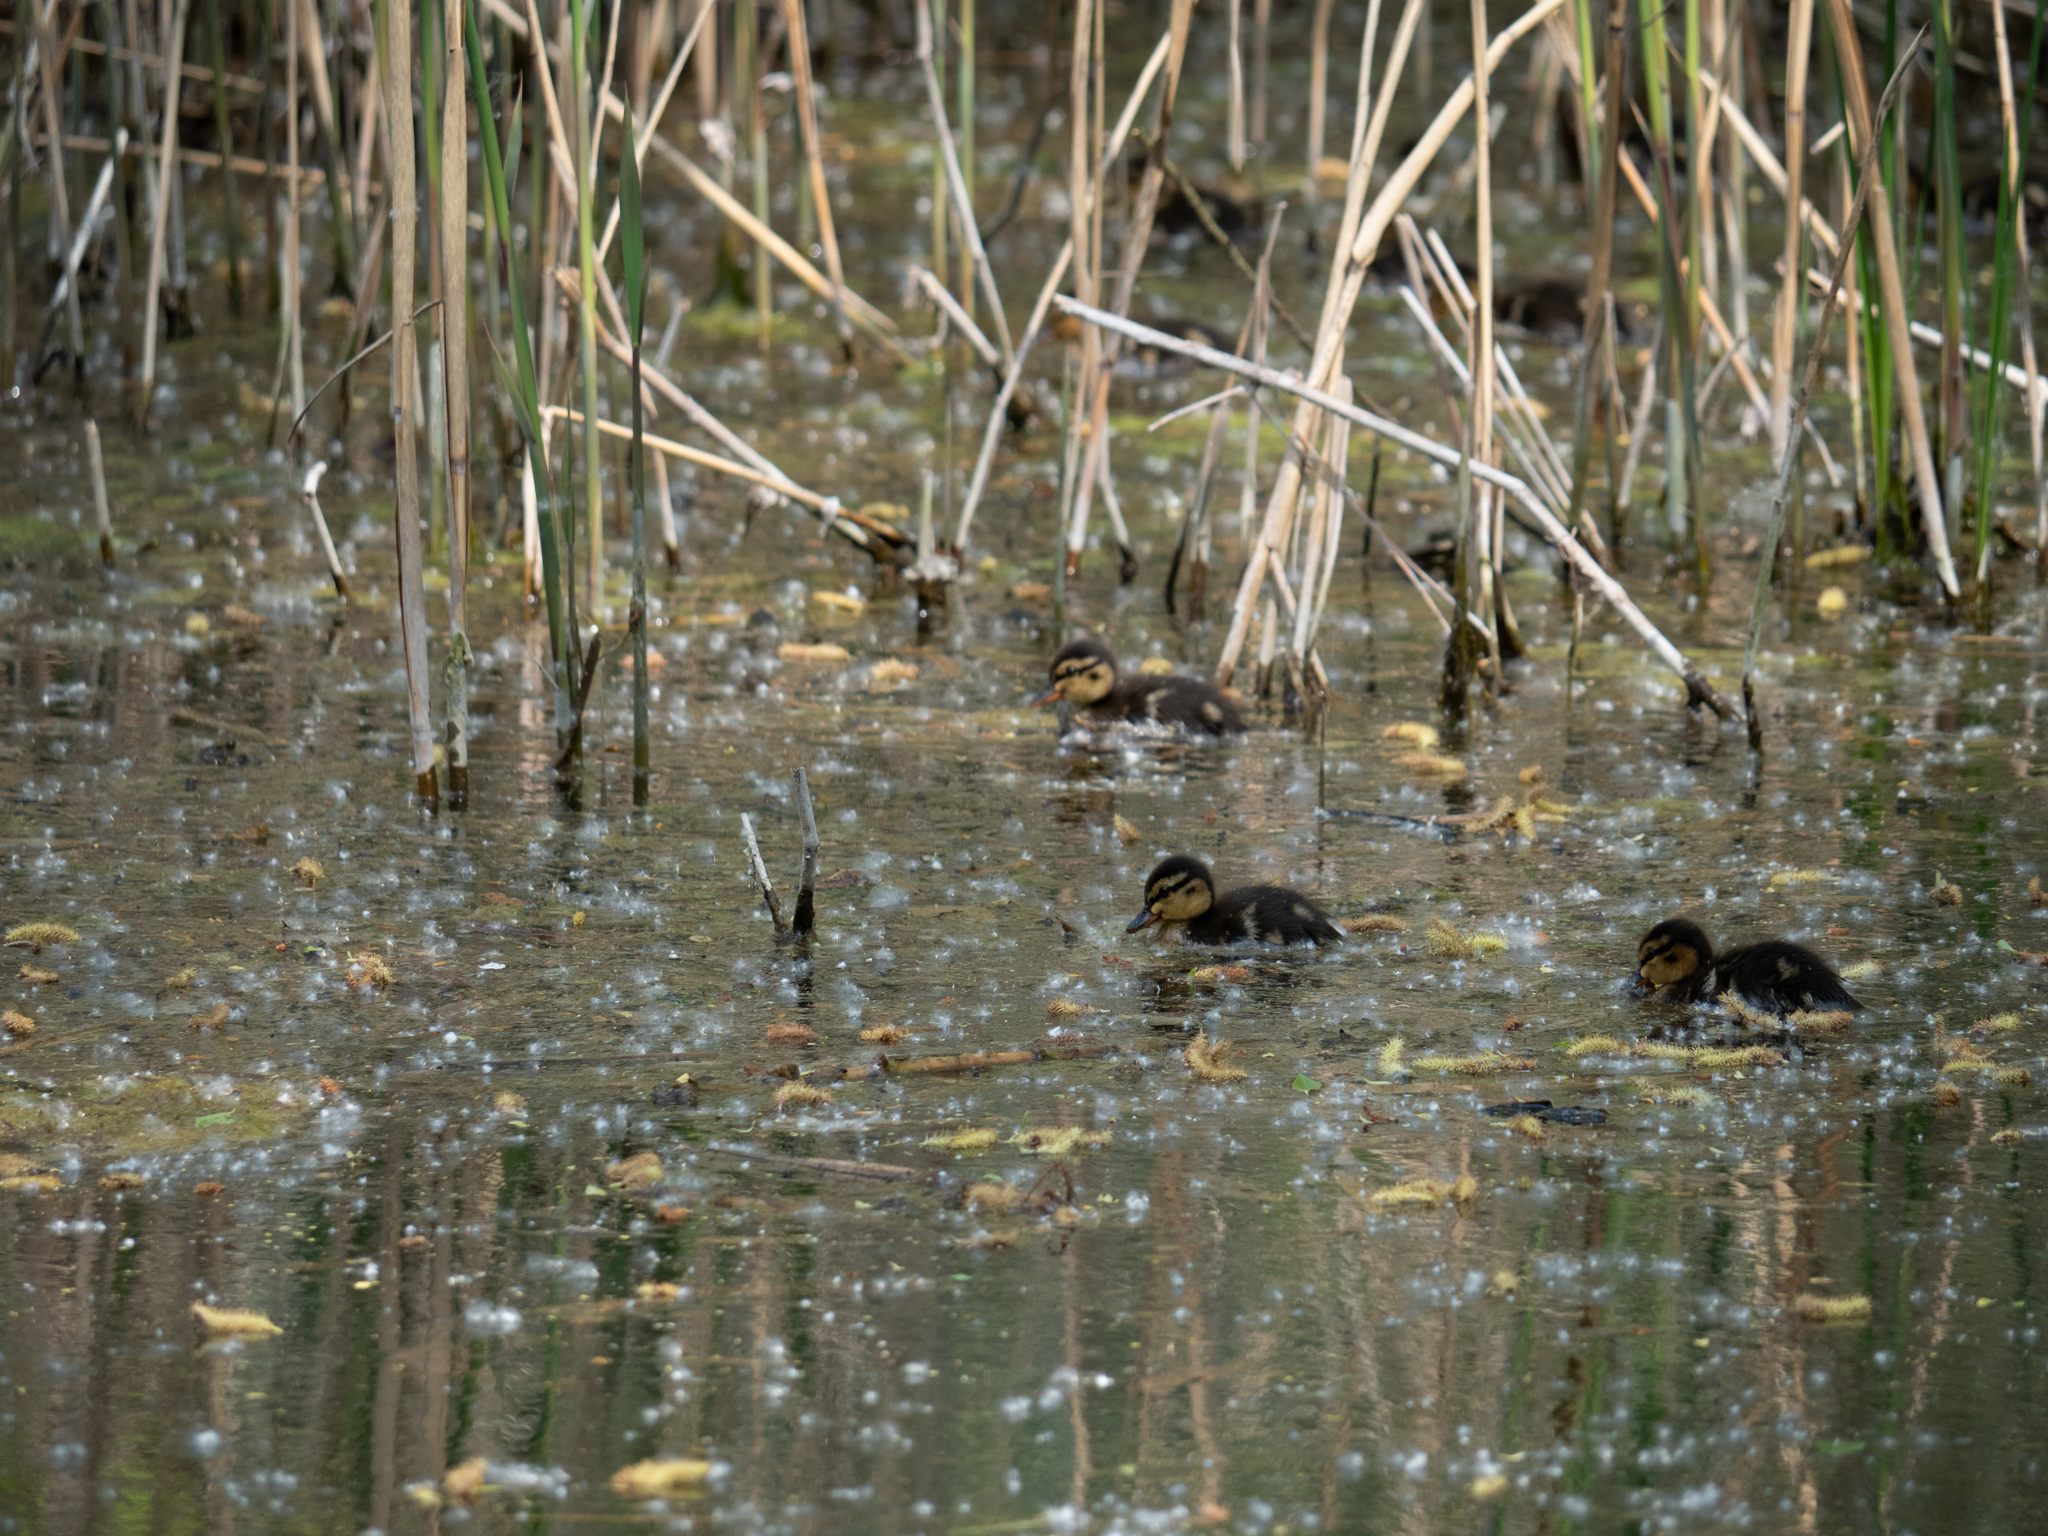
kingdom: Animalia
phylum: Chordata
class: Aves
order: Anseriformes
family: Anatidae
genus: Anas
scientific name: Anas platyrhynchos
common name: Mallard
